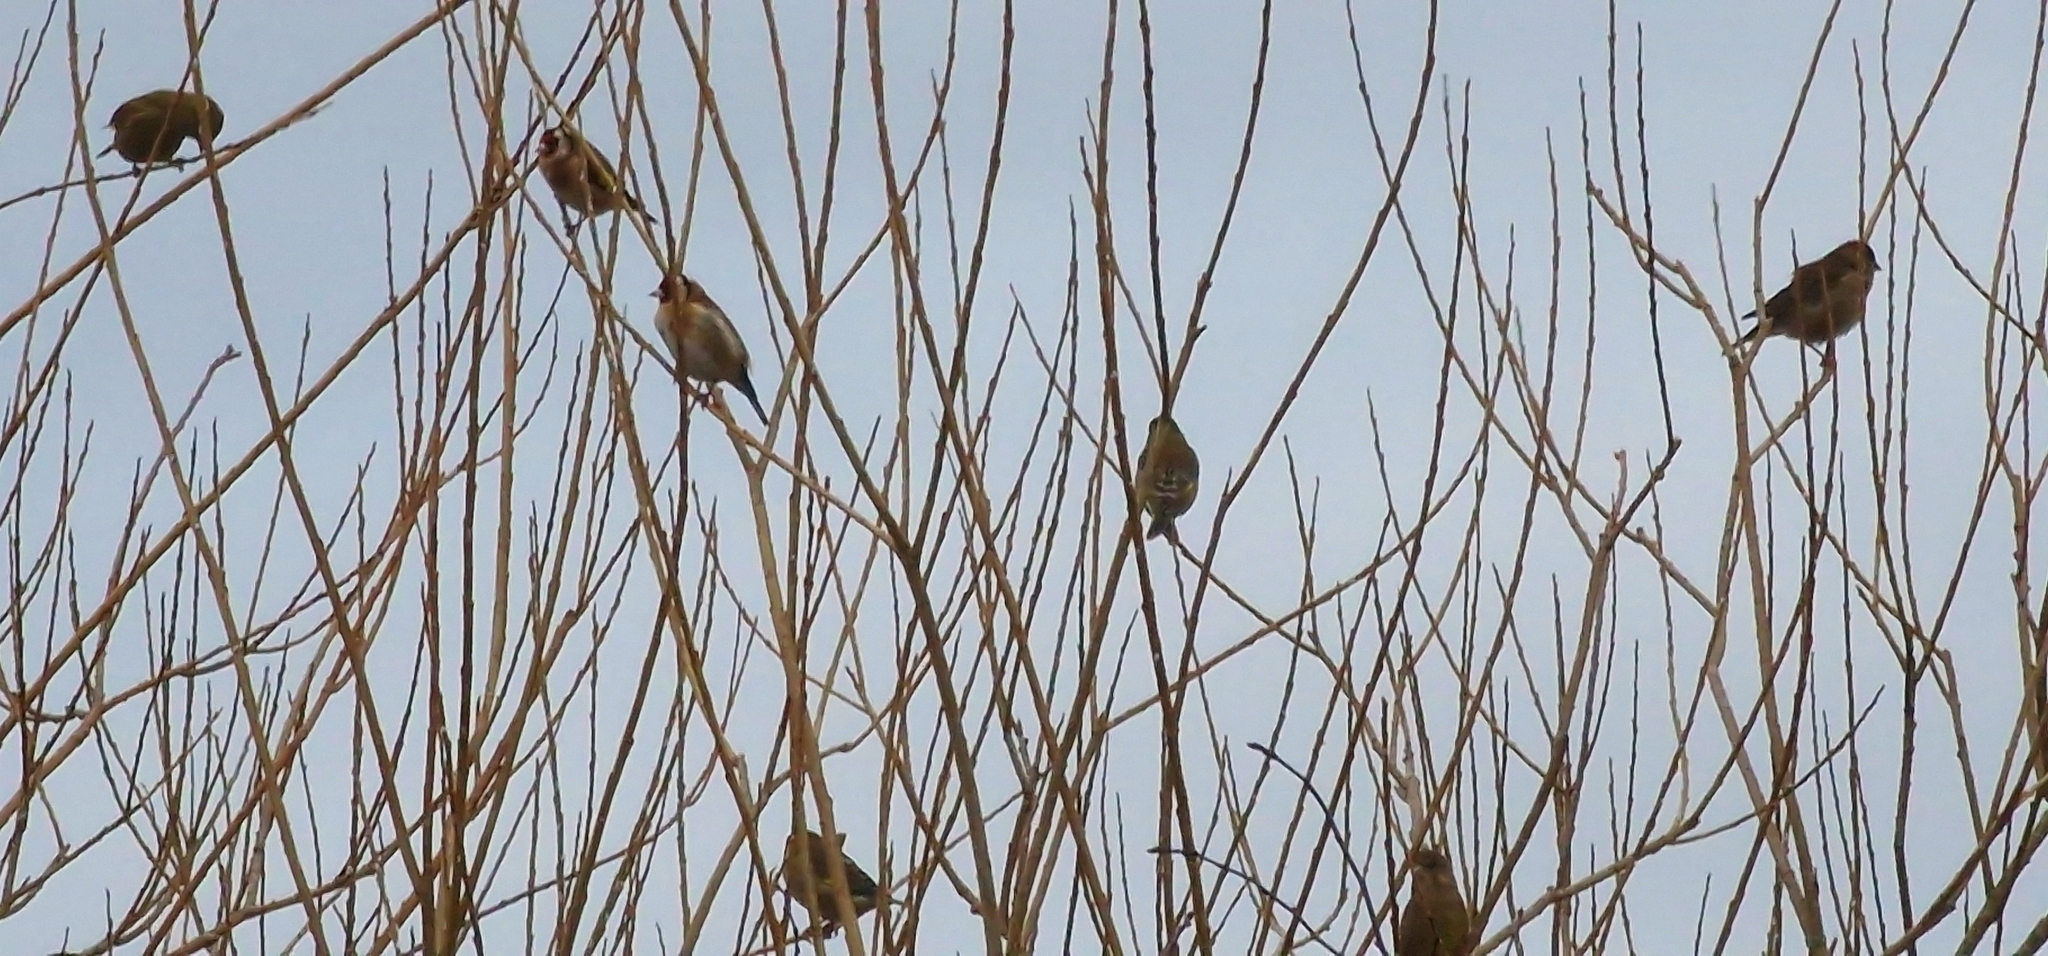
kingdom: Animalia
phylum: Chordata
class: Aves
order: Passeriformes
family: Fringillidae
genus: Carduelis
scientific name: Carduelis carduelis
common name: European goldfinch
